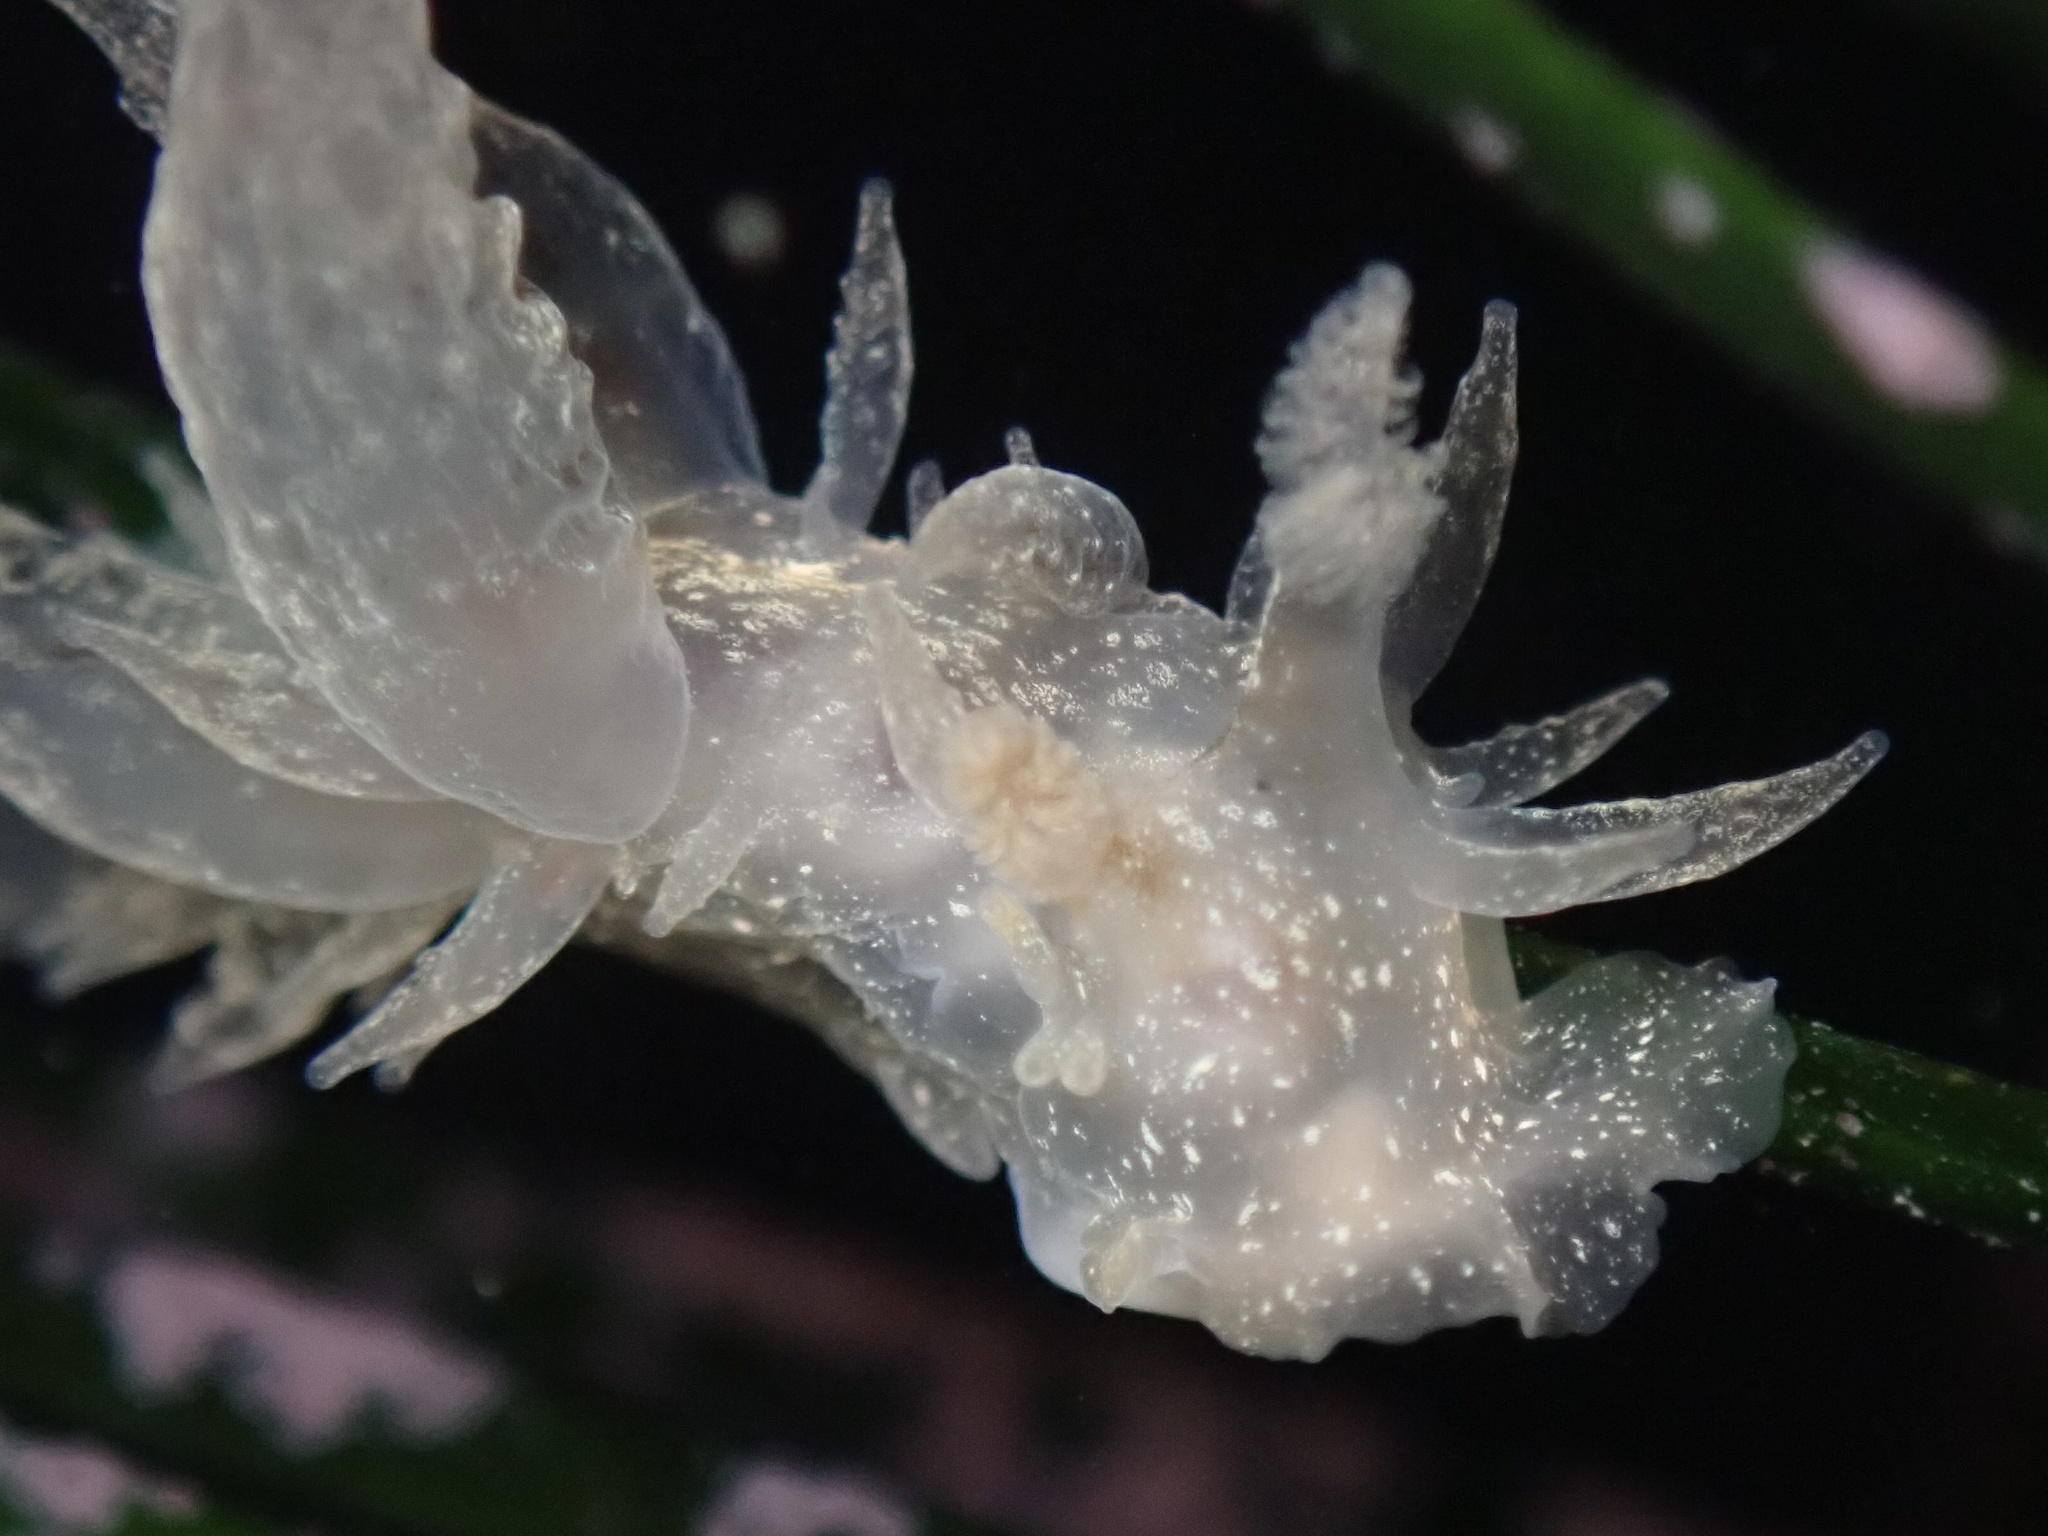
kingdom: Animalia
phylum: Mollusca
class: Gastropoda
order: Nudibranchia
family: Dironidae
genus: Dirona
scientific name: Dirona picta
